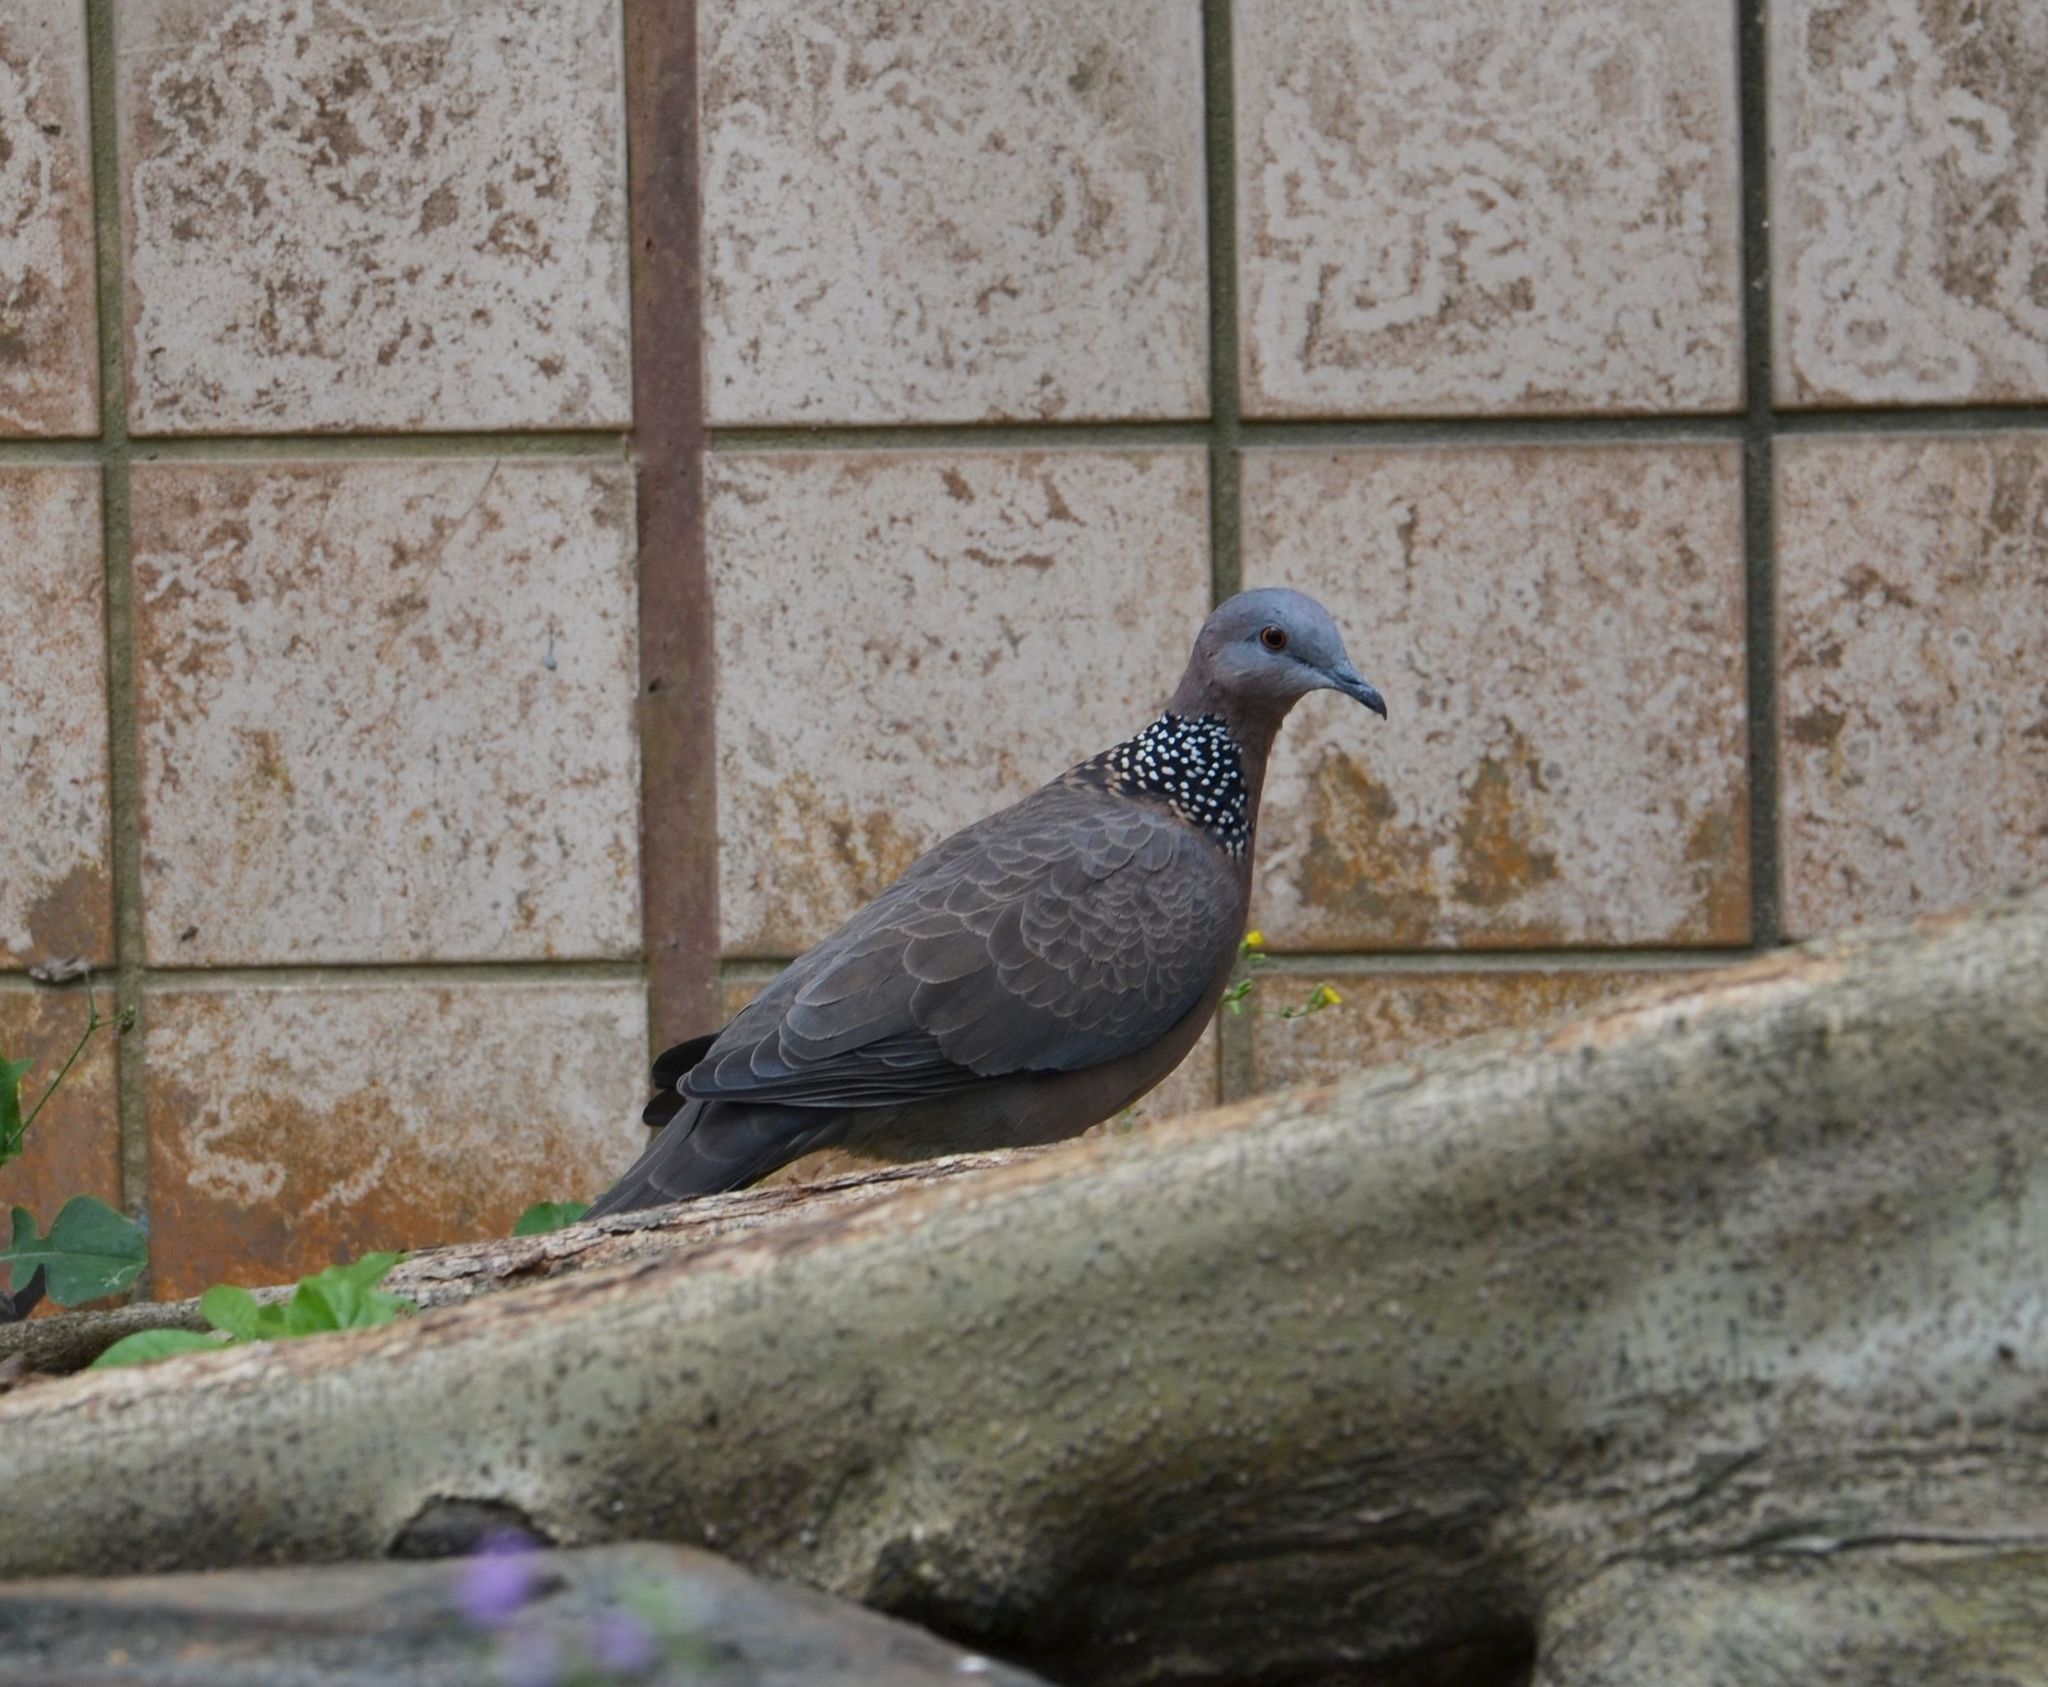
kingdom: Animalia
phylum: Chordata
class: Aves
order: Columbiformes
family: Columbidae
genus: Spilopelia
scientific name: Spilopelia chinensis
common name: Spotted dove
